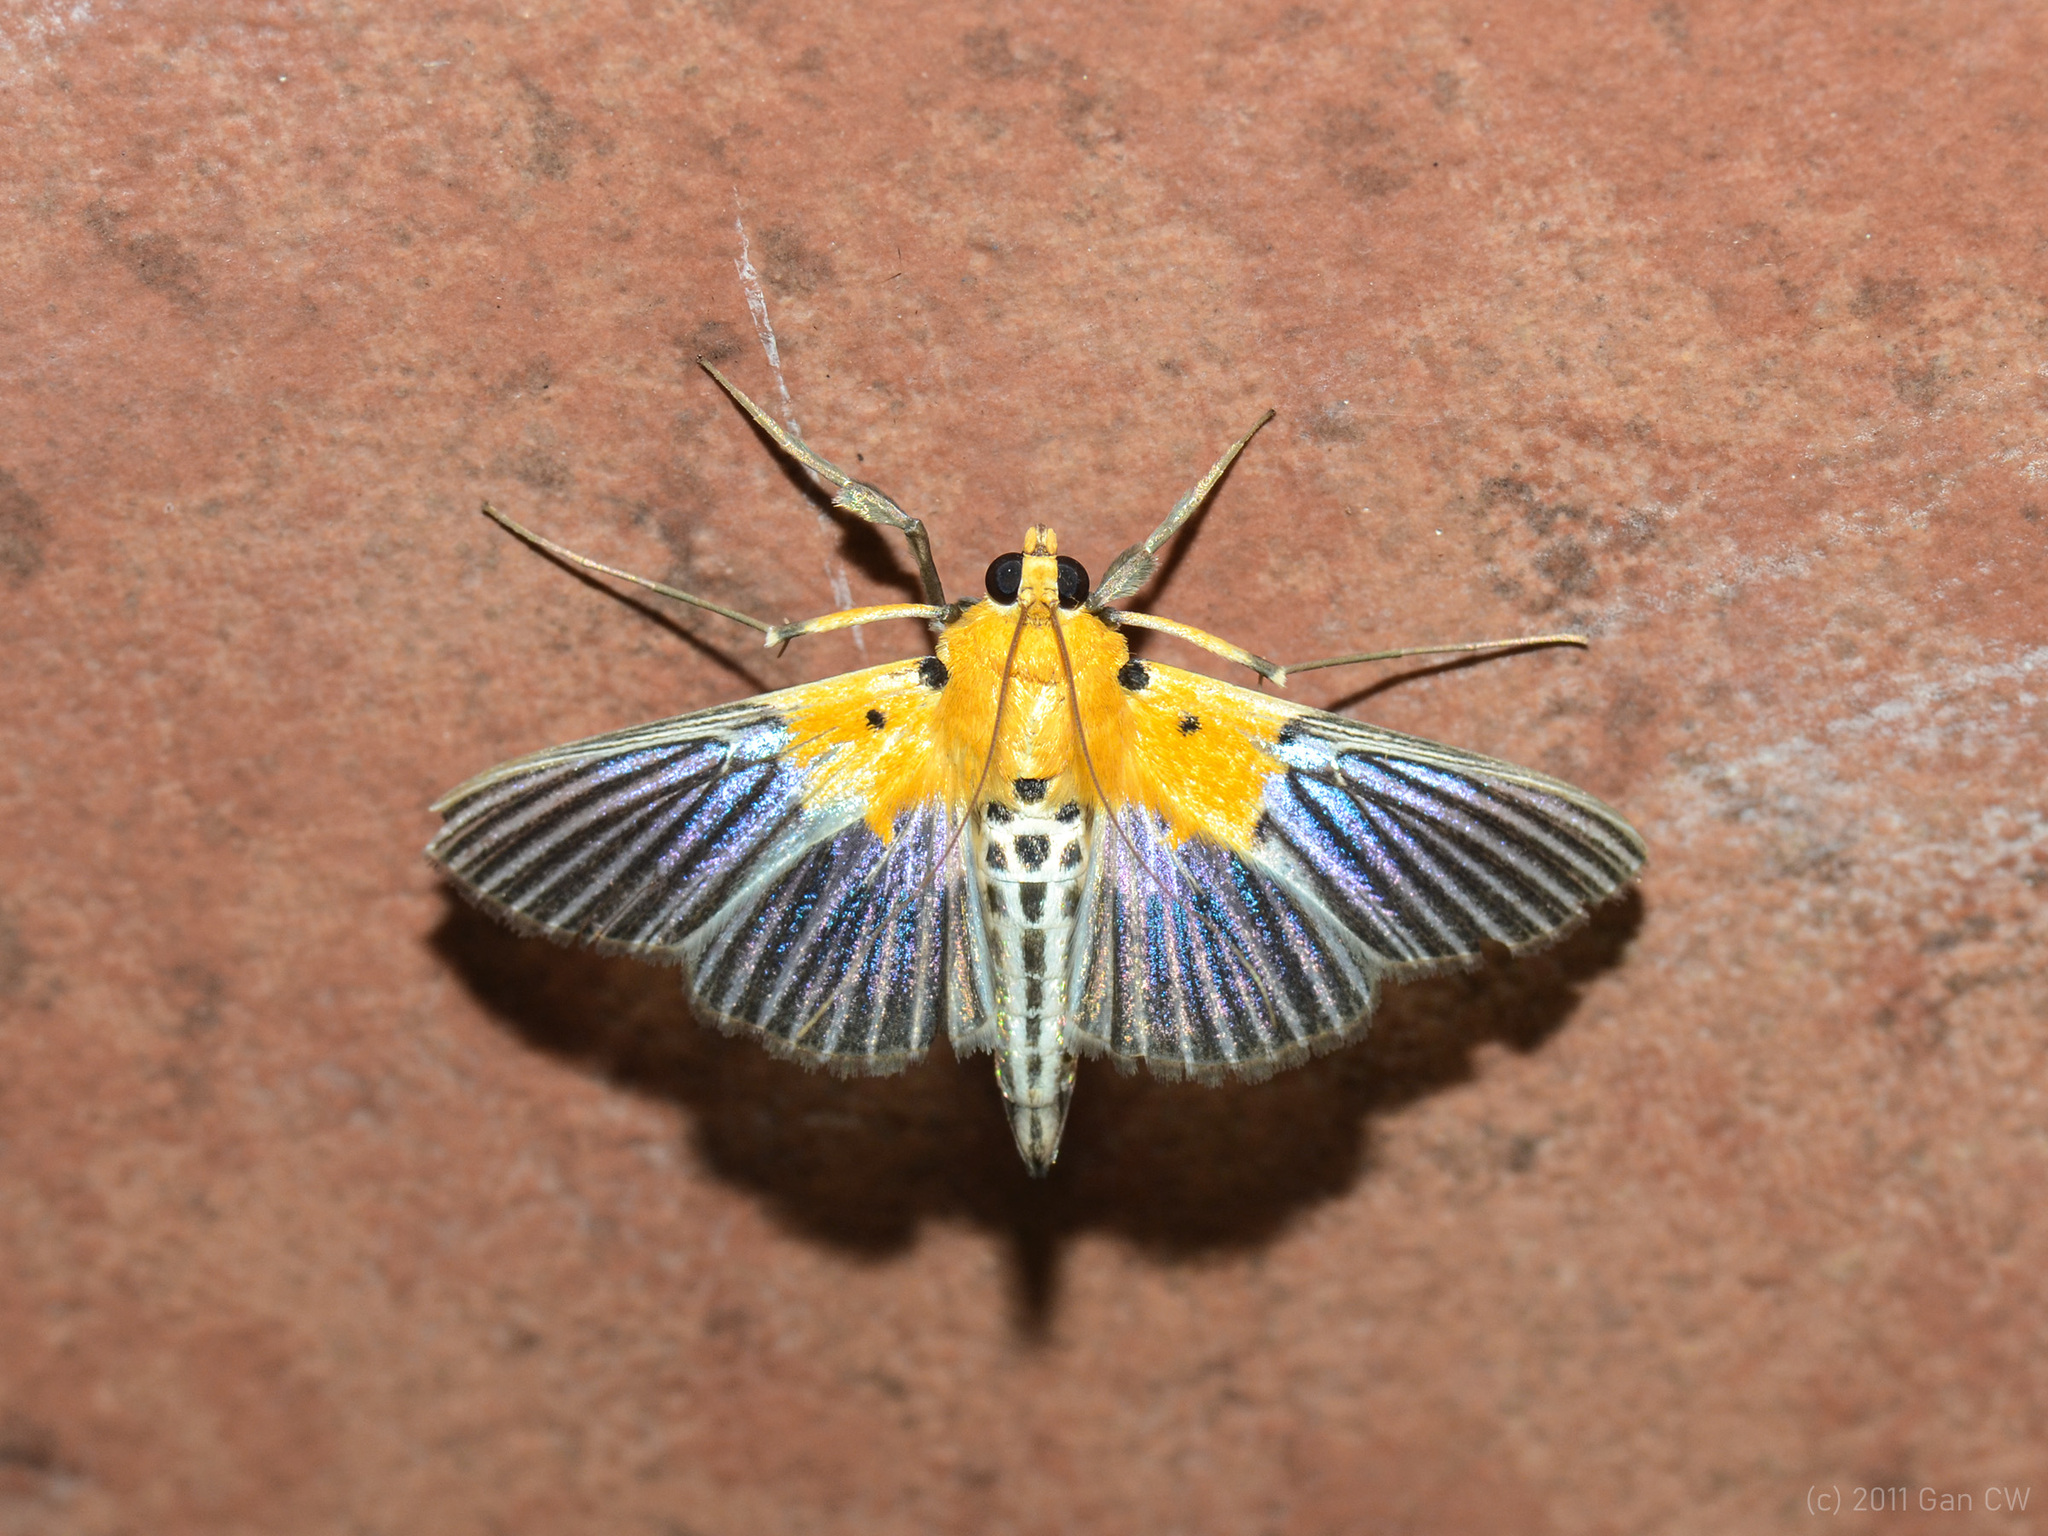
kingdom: Animalia
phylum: Arthropoda
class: Insecta
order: Lepidoptera
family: Crambidae
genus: Nevrina
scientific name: Nevrina procopia
